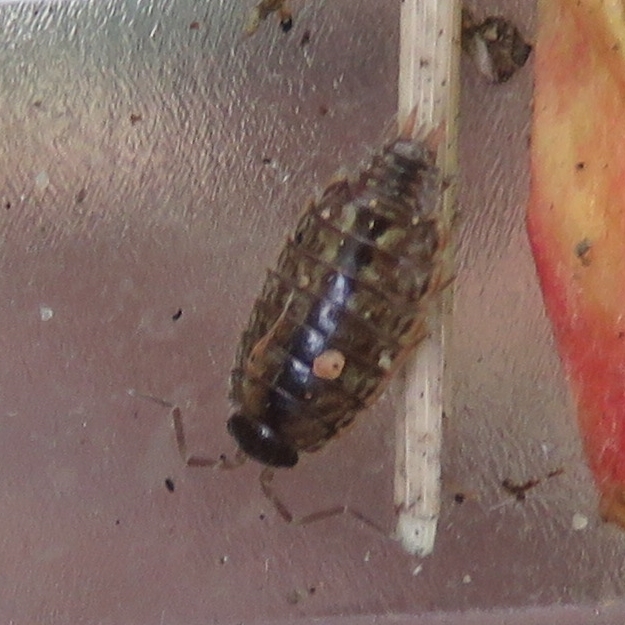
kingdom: Animalia
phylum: Arthropoda
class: Malacostraca
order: Isopoda
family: Philosciidae
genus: Philoscia
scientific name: Philoscia muscorum
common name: Common striped woodlouse
